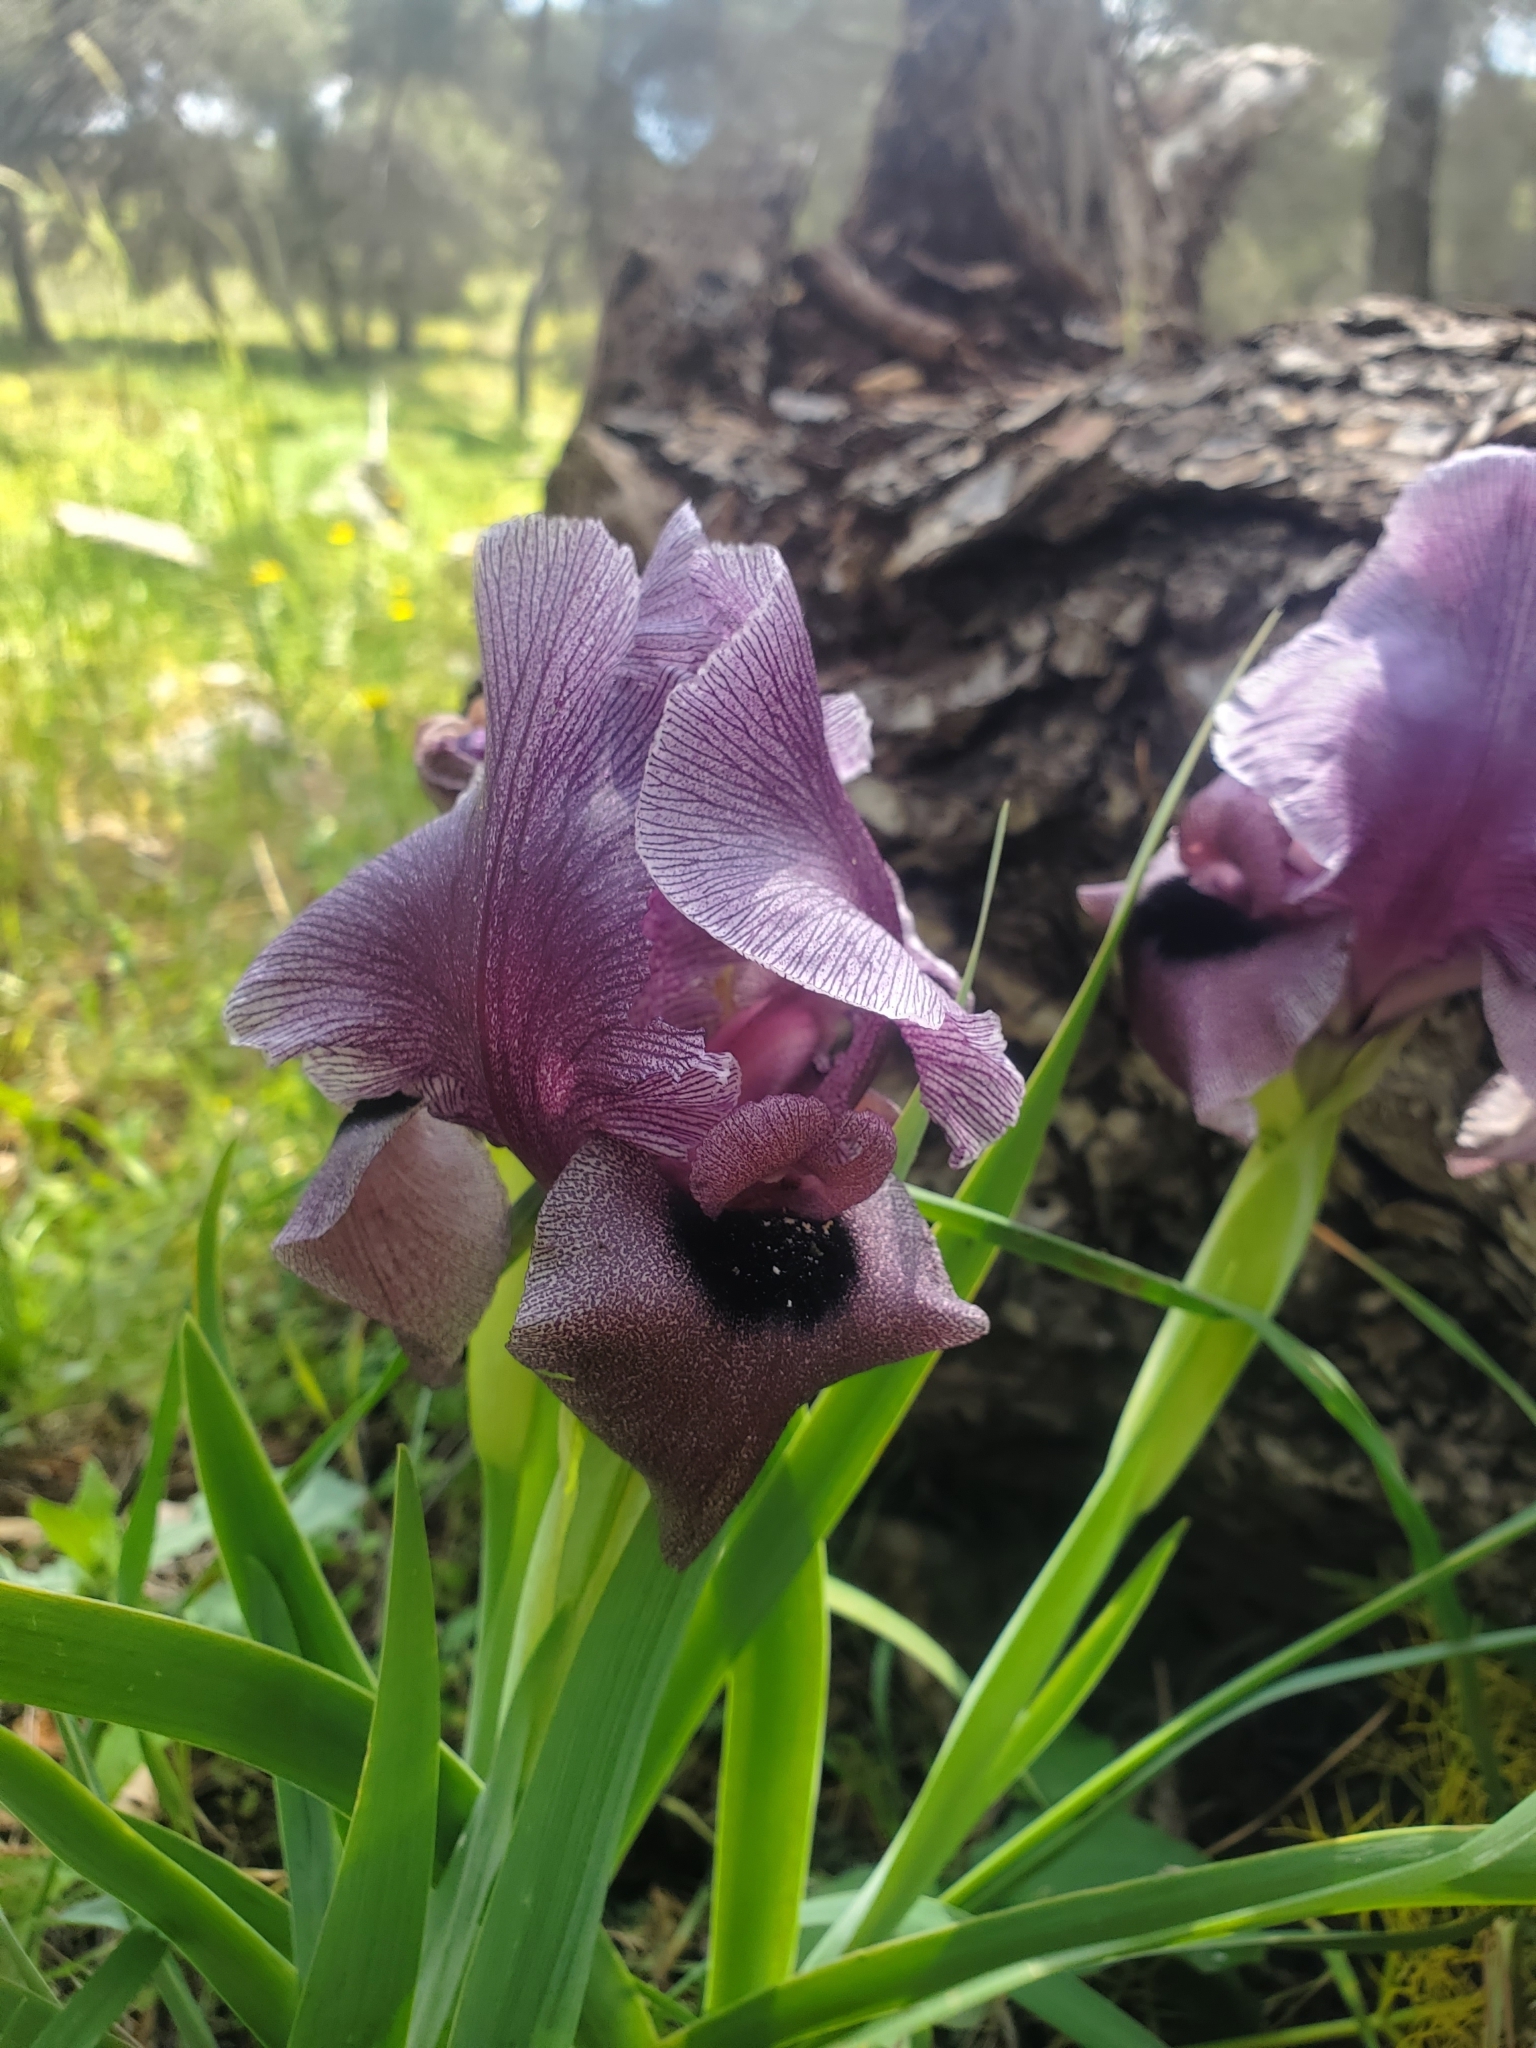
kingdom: Plantae
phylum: Tracheophyta
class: Liliopsida
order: Asparagales
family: Iridaceae
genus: Iris
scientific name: Iris haynei
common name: Gilboa iris
